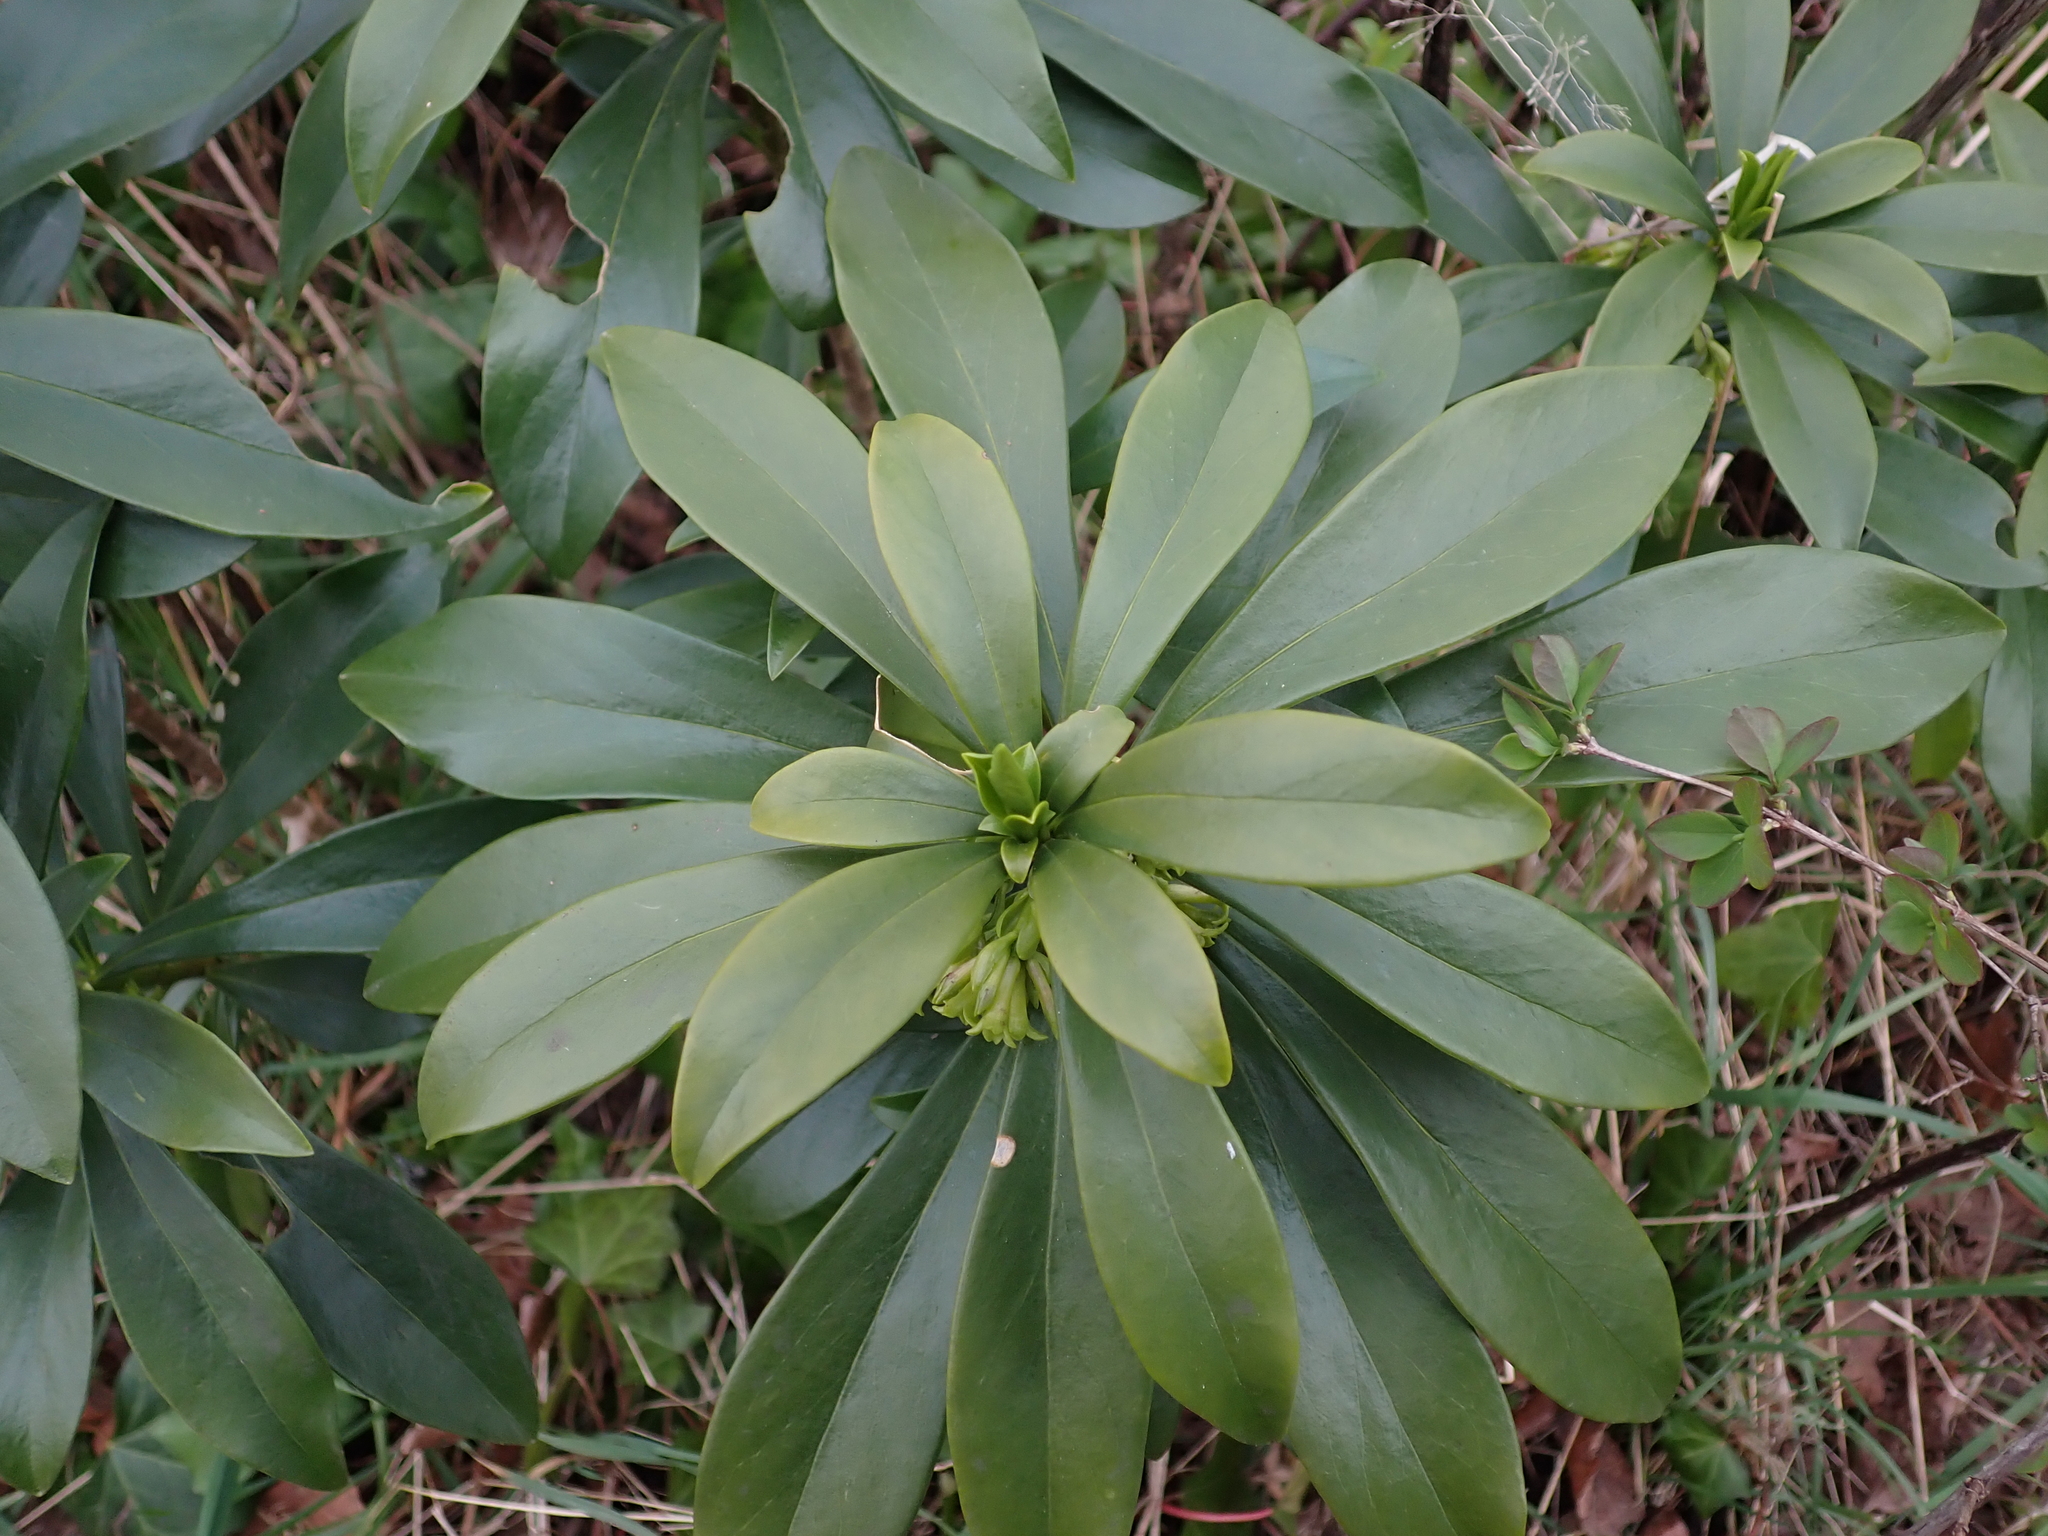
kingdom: Plantae
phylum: Tracheophyta
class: Magnoliopsida
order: Malvales
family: Thymelaeaceae
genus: Daphne
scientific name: Daphne laureola
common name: Spurge-laurel
